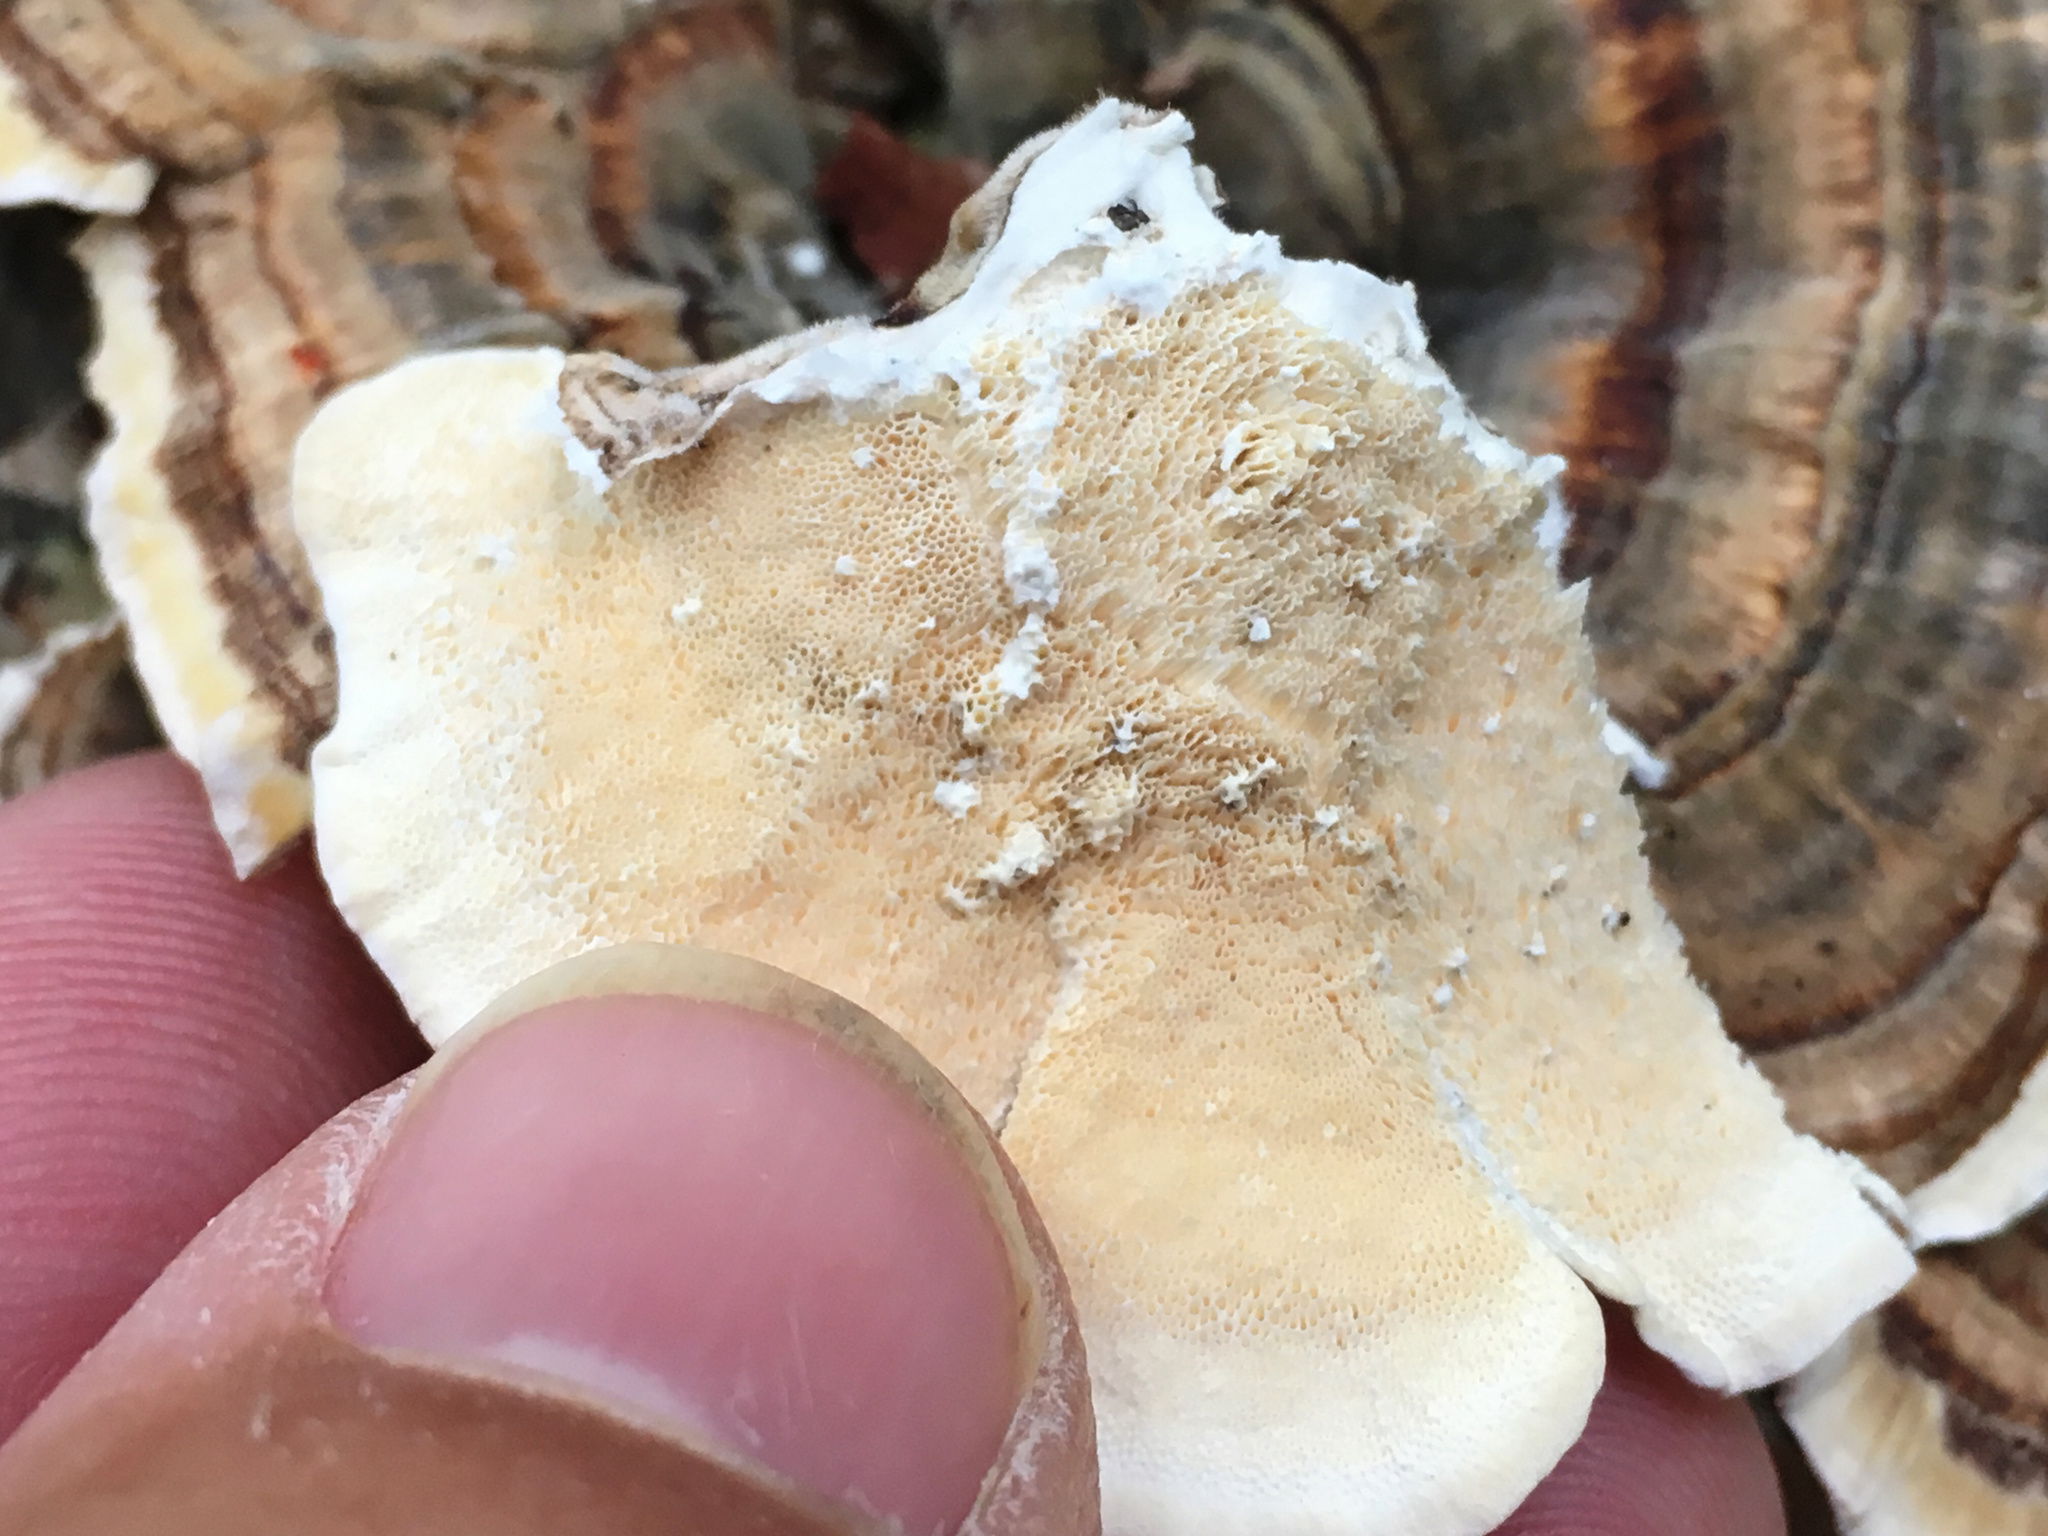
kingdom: Fungi
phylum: Basidiomycota
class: Agaricomycetes
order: Polyporales
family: Polyporaceae
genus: Trametes
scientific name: Trametes versicolor
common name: Turkeytail
